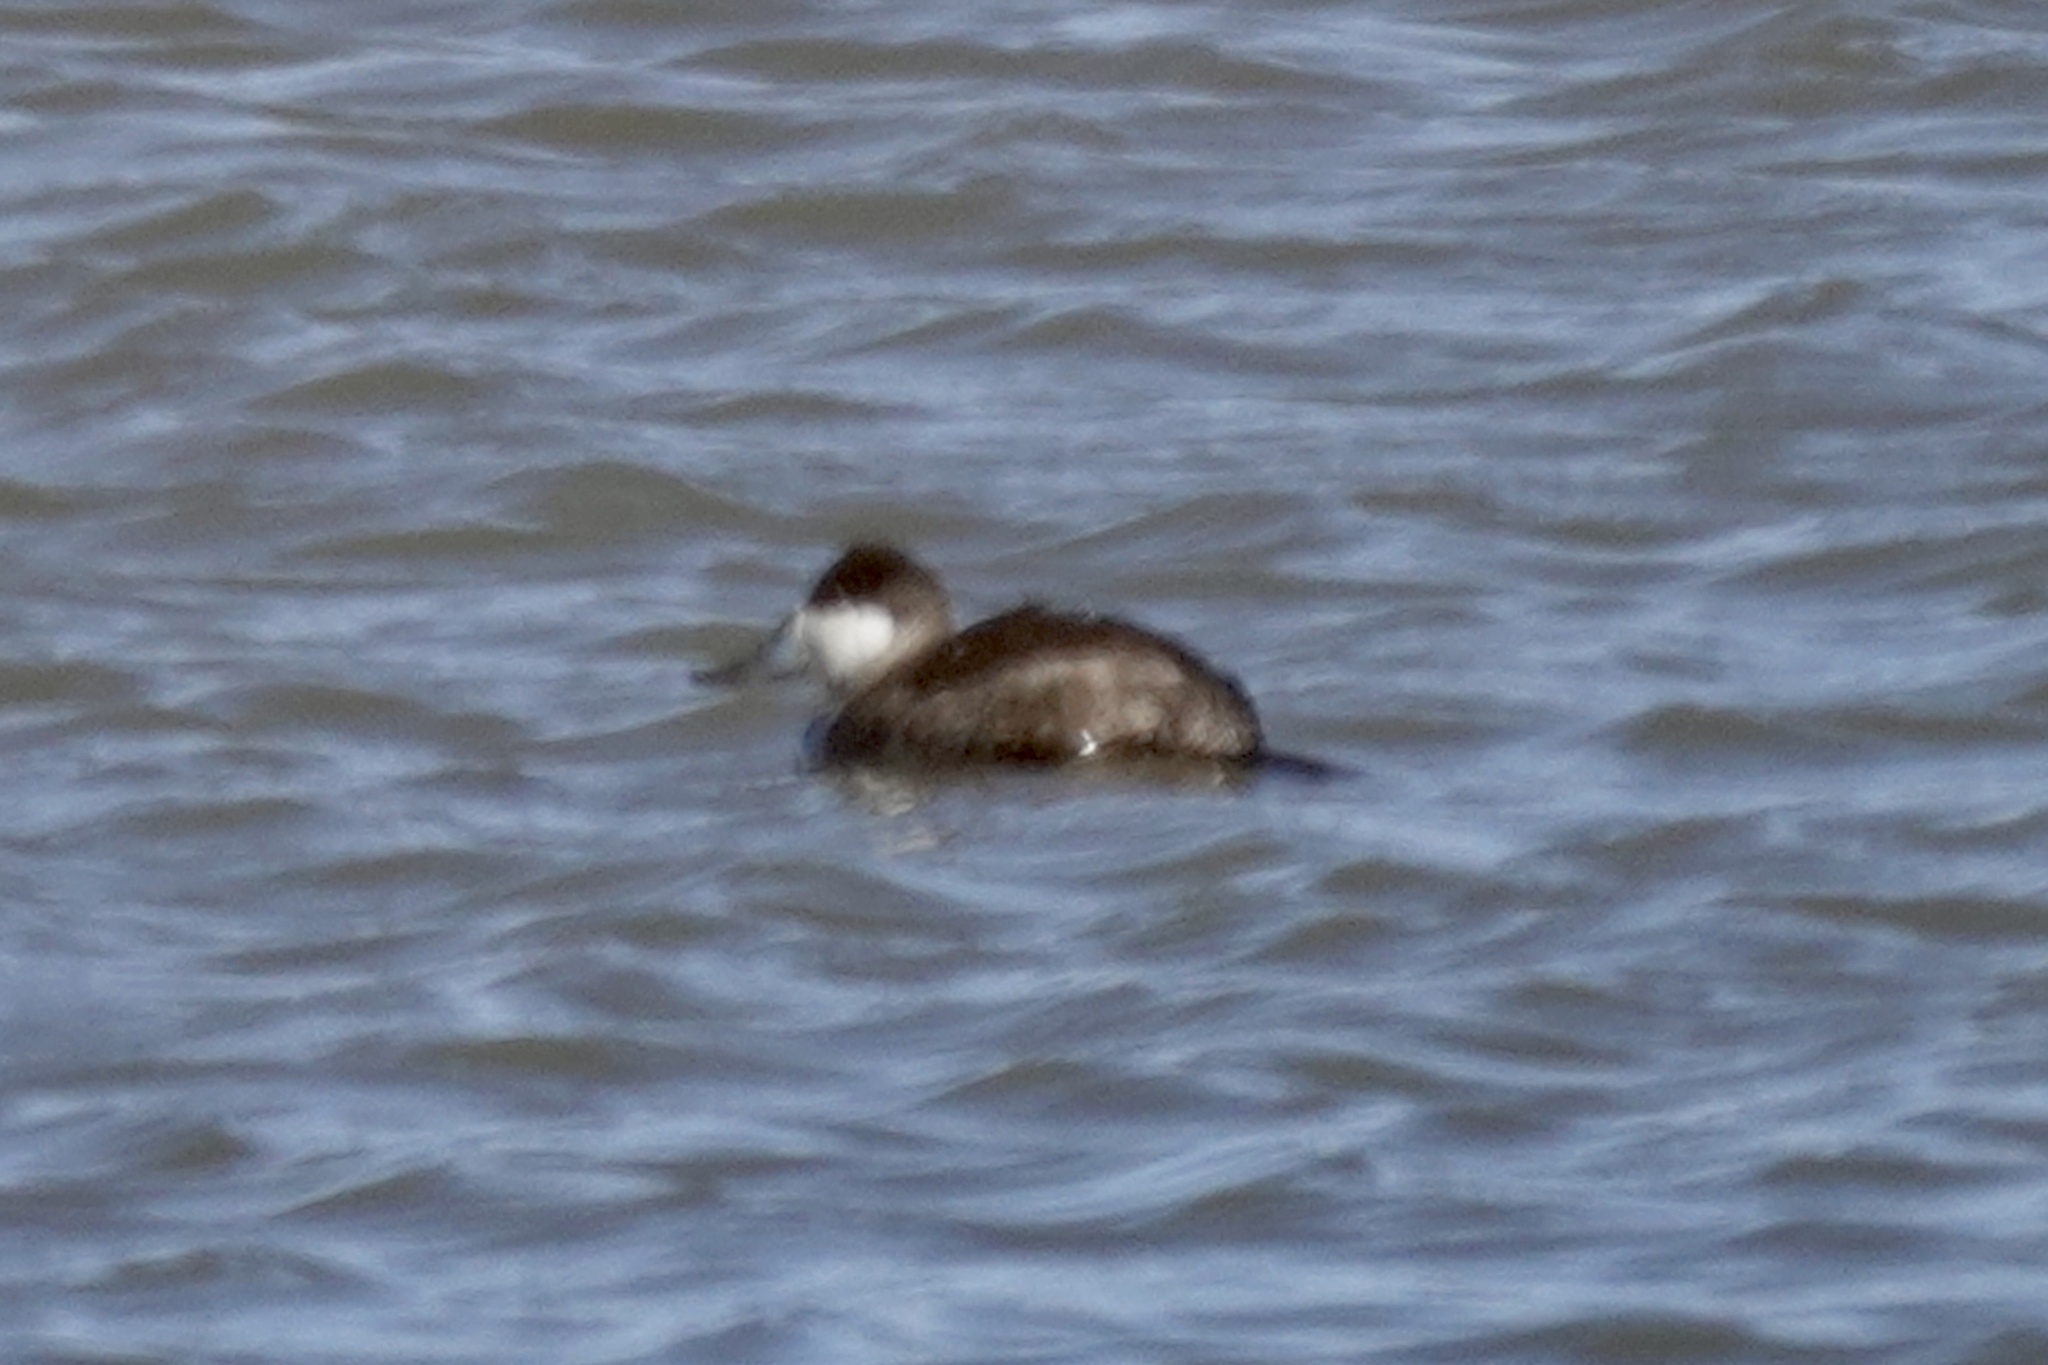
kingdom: Animalia
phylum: Chordata
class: Aves
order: Anseriformes
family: Anatidae
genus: Oxyura
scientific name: Oxyura jamaicensis
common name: Ruddy duck
